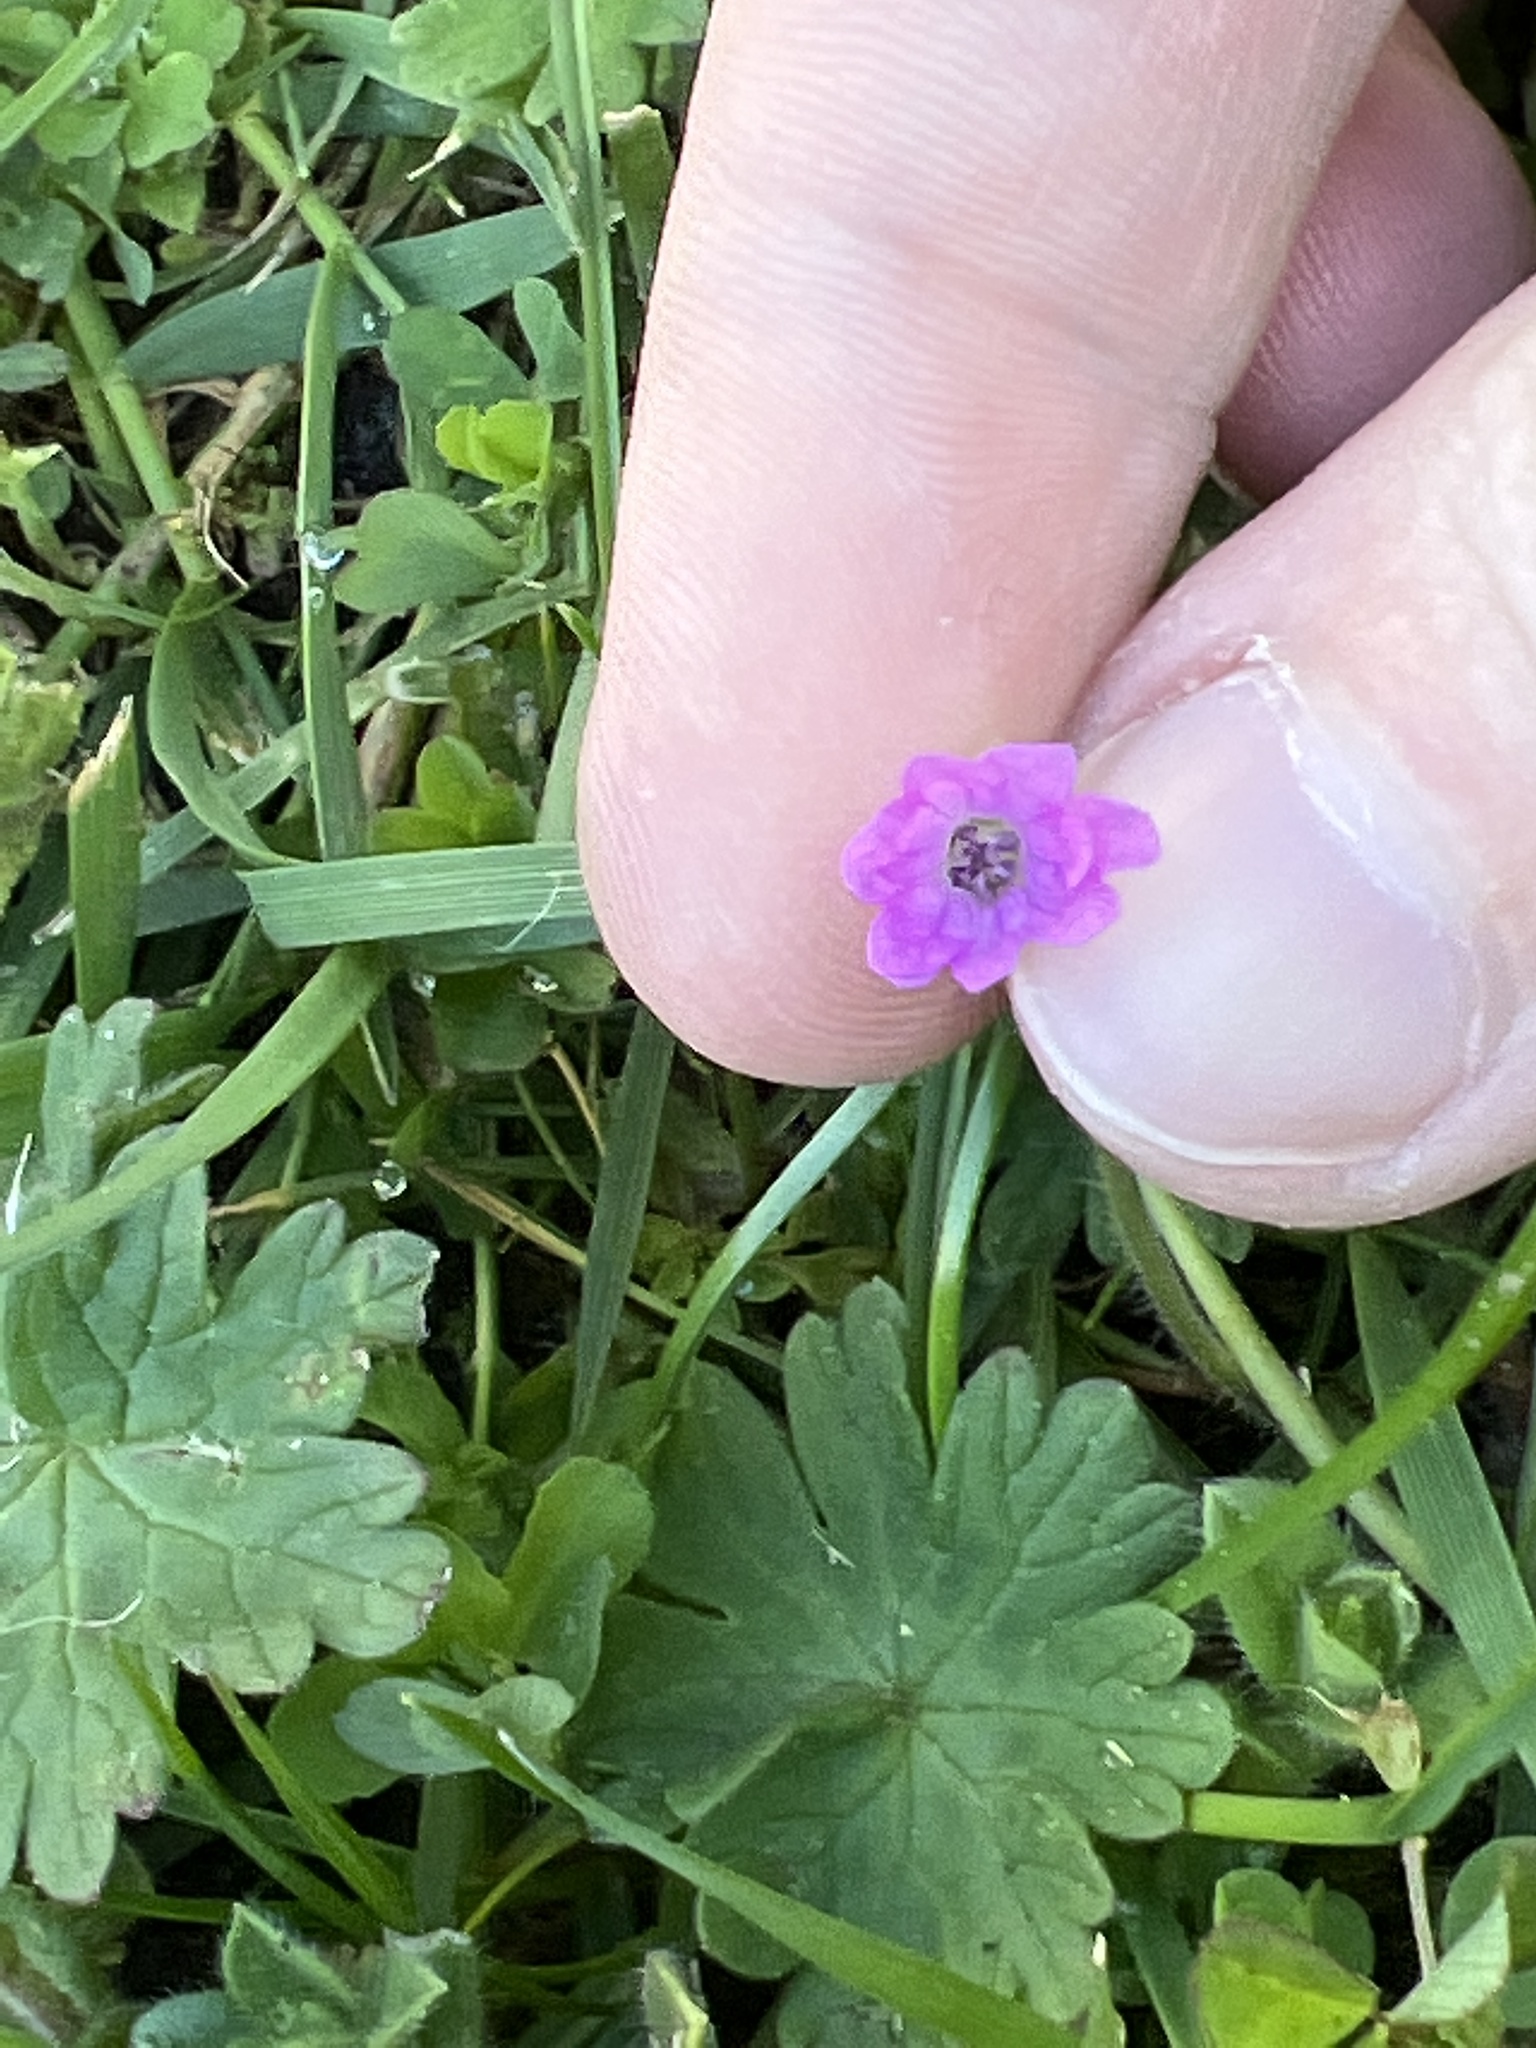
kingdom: Plantae
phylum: Tracheophyta
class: Magnoliopsida
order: Geraniales
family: Geraniaceae
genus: Geranium
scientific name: Geranium molle
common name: Dove's-foot crane's-bill
